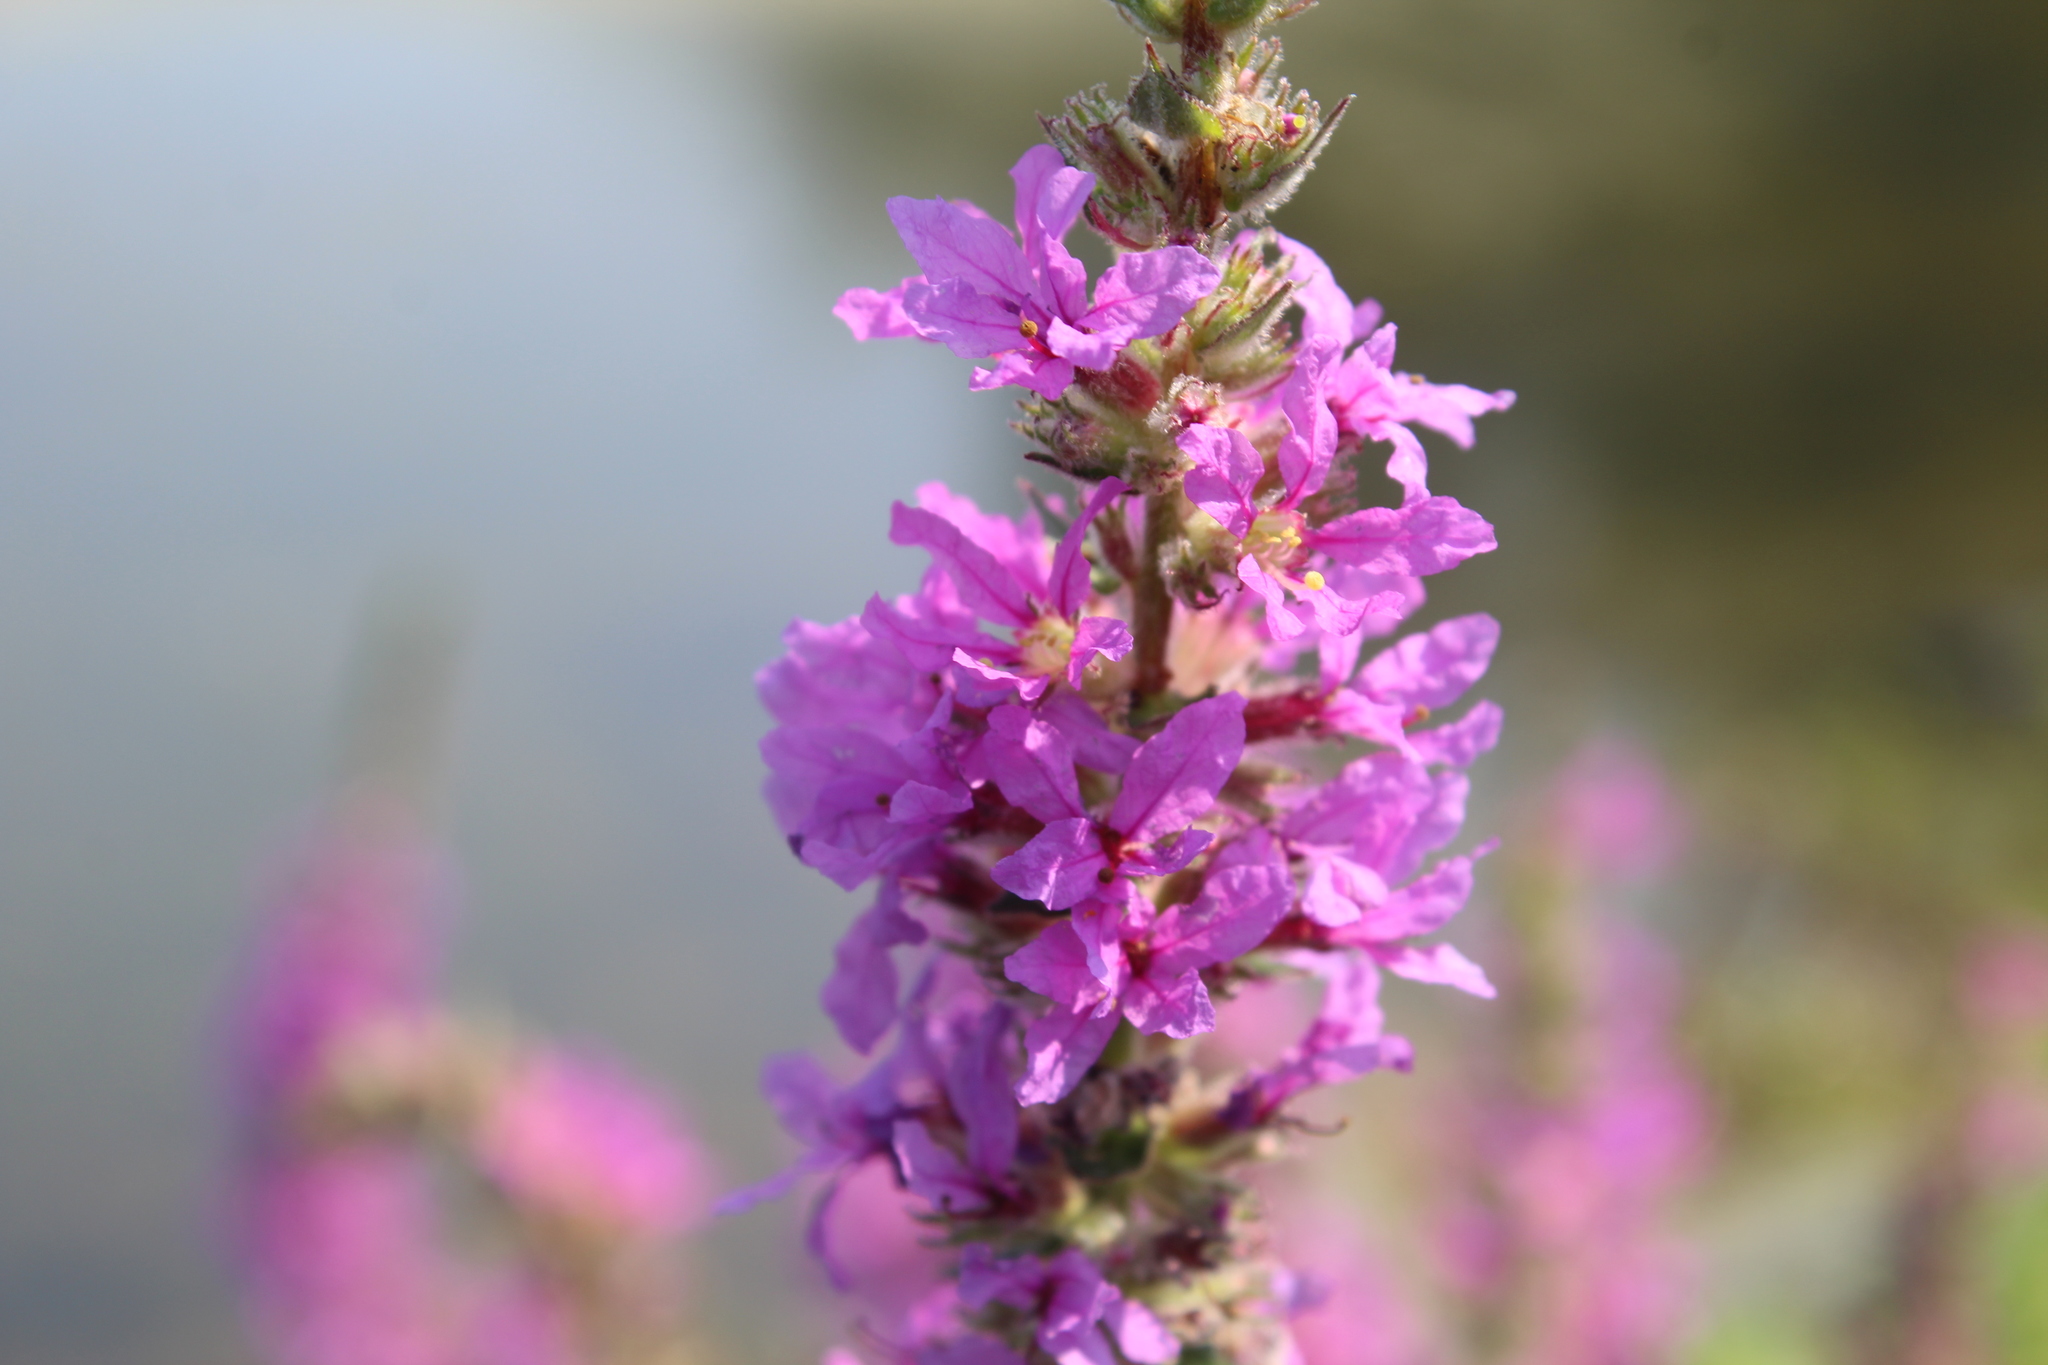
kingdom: Plantae
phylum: Tracheophyta
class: Magnoliopsida
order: Myrtales
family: Lythraceae
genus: Lythrum
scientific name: Lythrum salicaria
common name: Purple loosestrife
